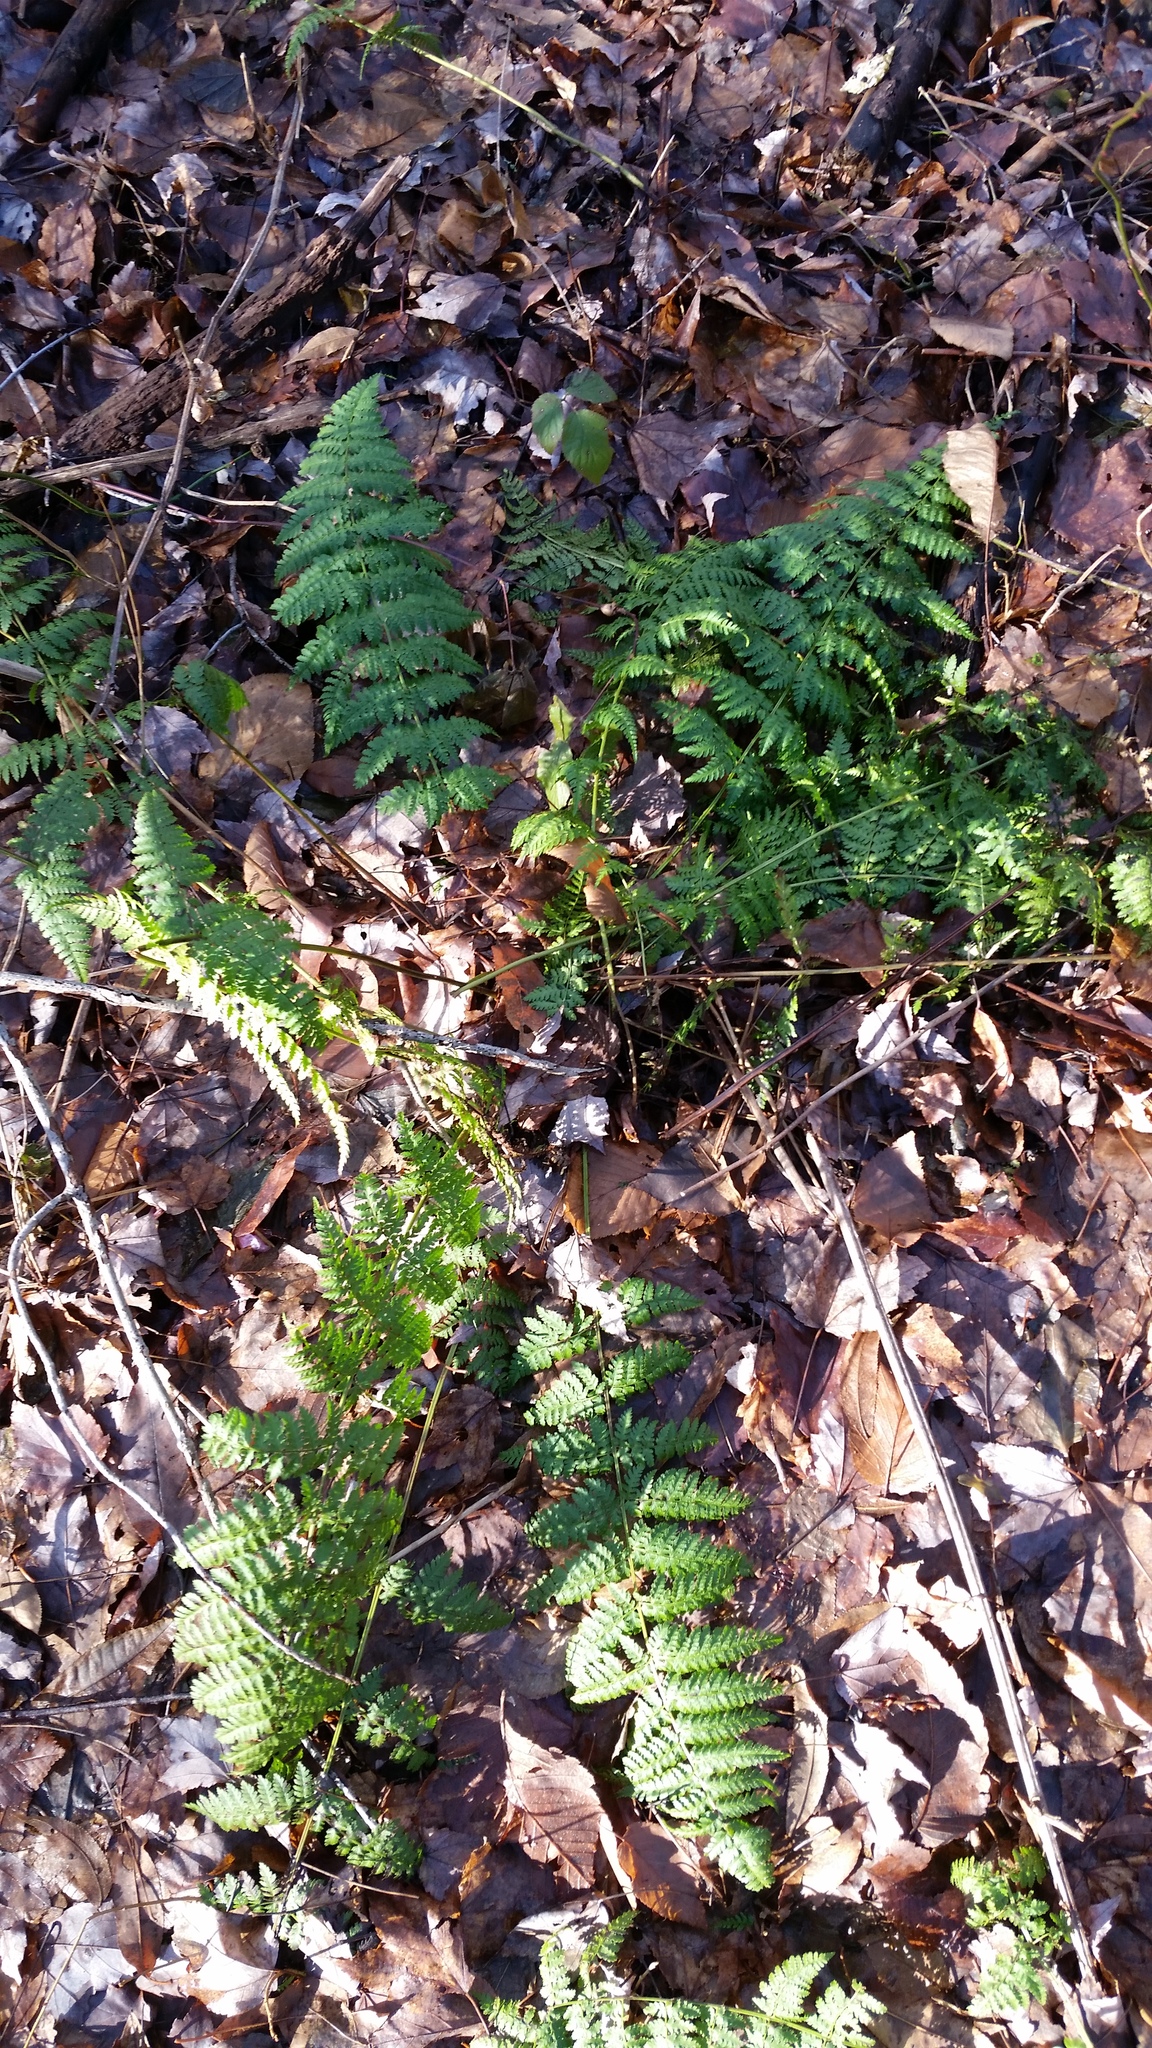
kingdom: Plantae
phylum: Tracheophyta
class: Polypodiopsida
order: Polypodiales
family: Dryopteridaceae
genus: Dryopteris
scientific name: Dryopteris intermedia
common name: Evergreen wood fern
